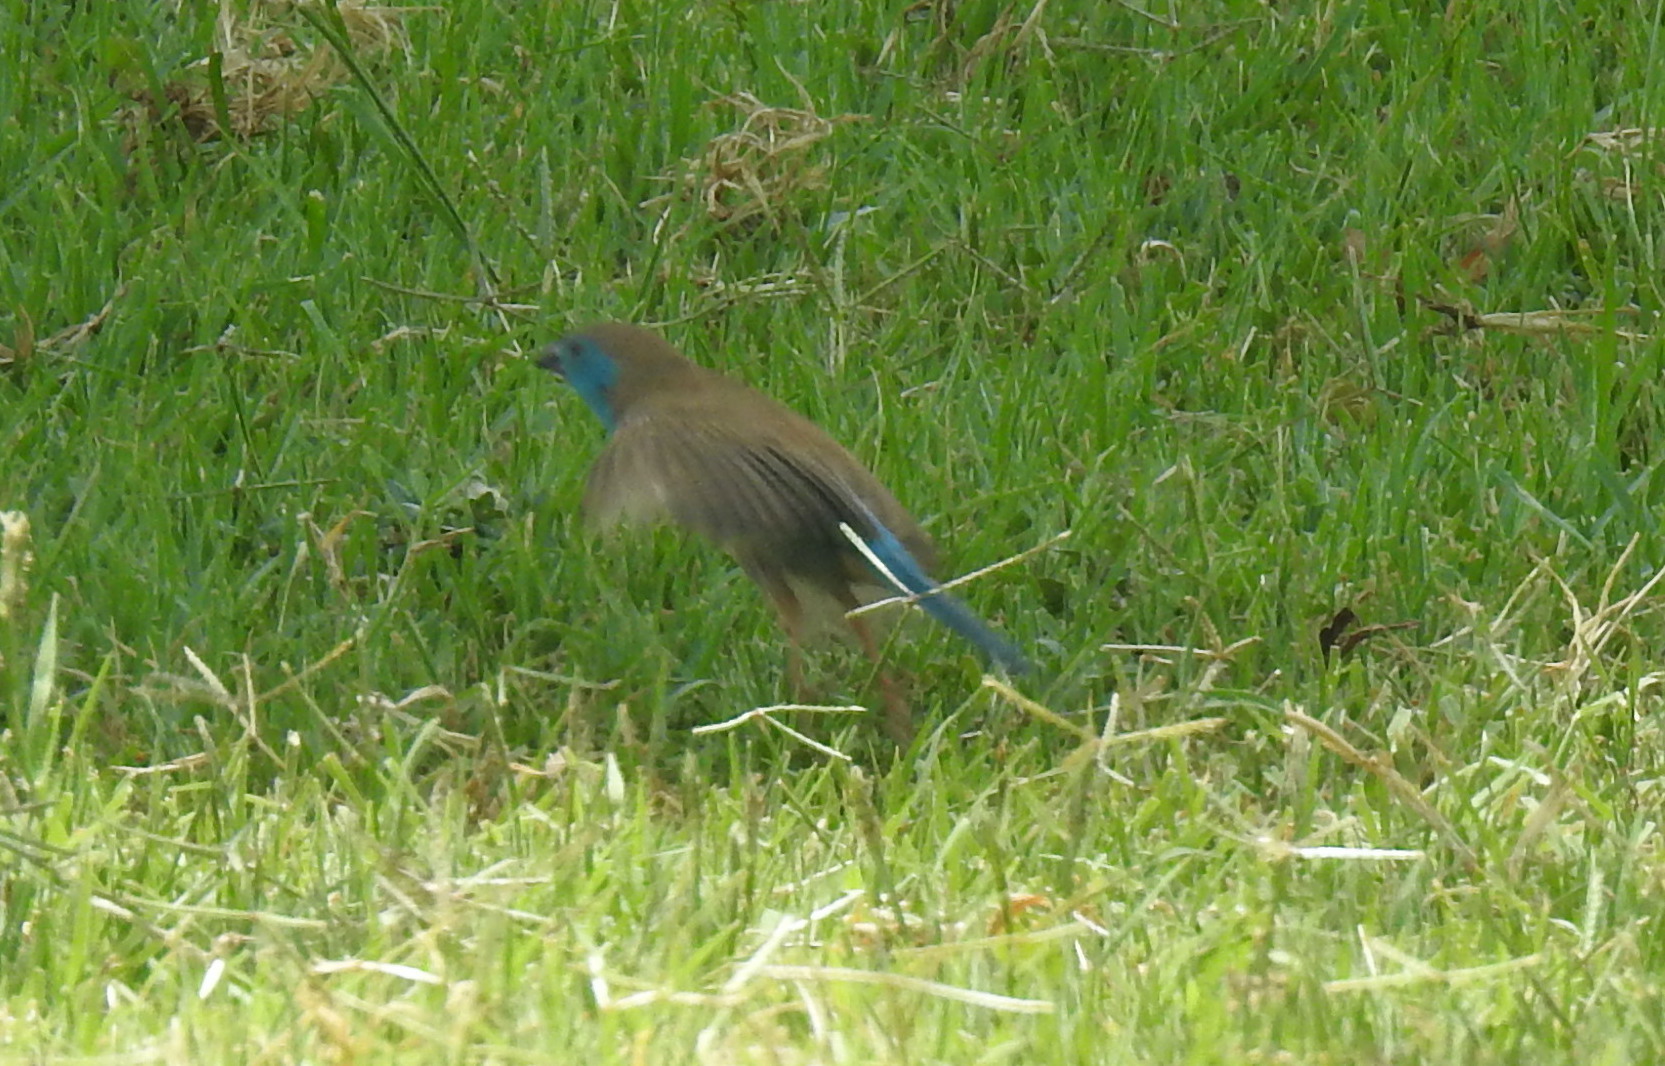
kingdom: Animalia
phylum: Chordata
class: Aves
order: Passeriformes
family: Estrildidae
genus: Uraeginthus
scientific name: Uraeginthus angolensis
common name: Blue waxbill
